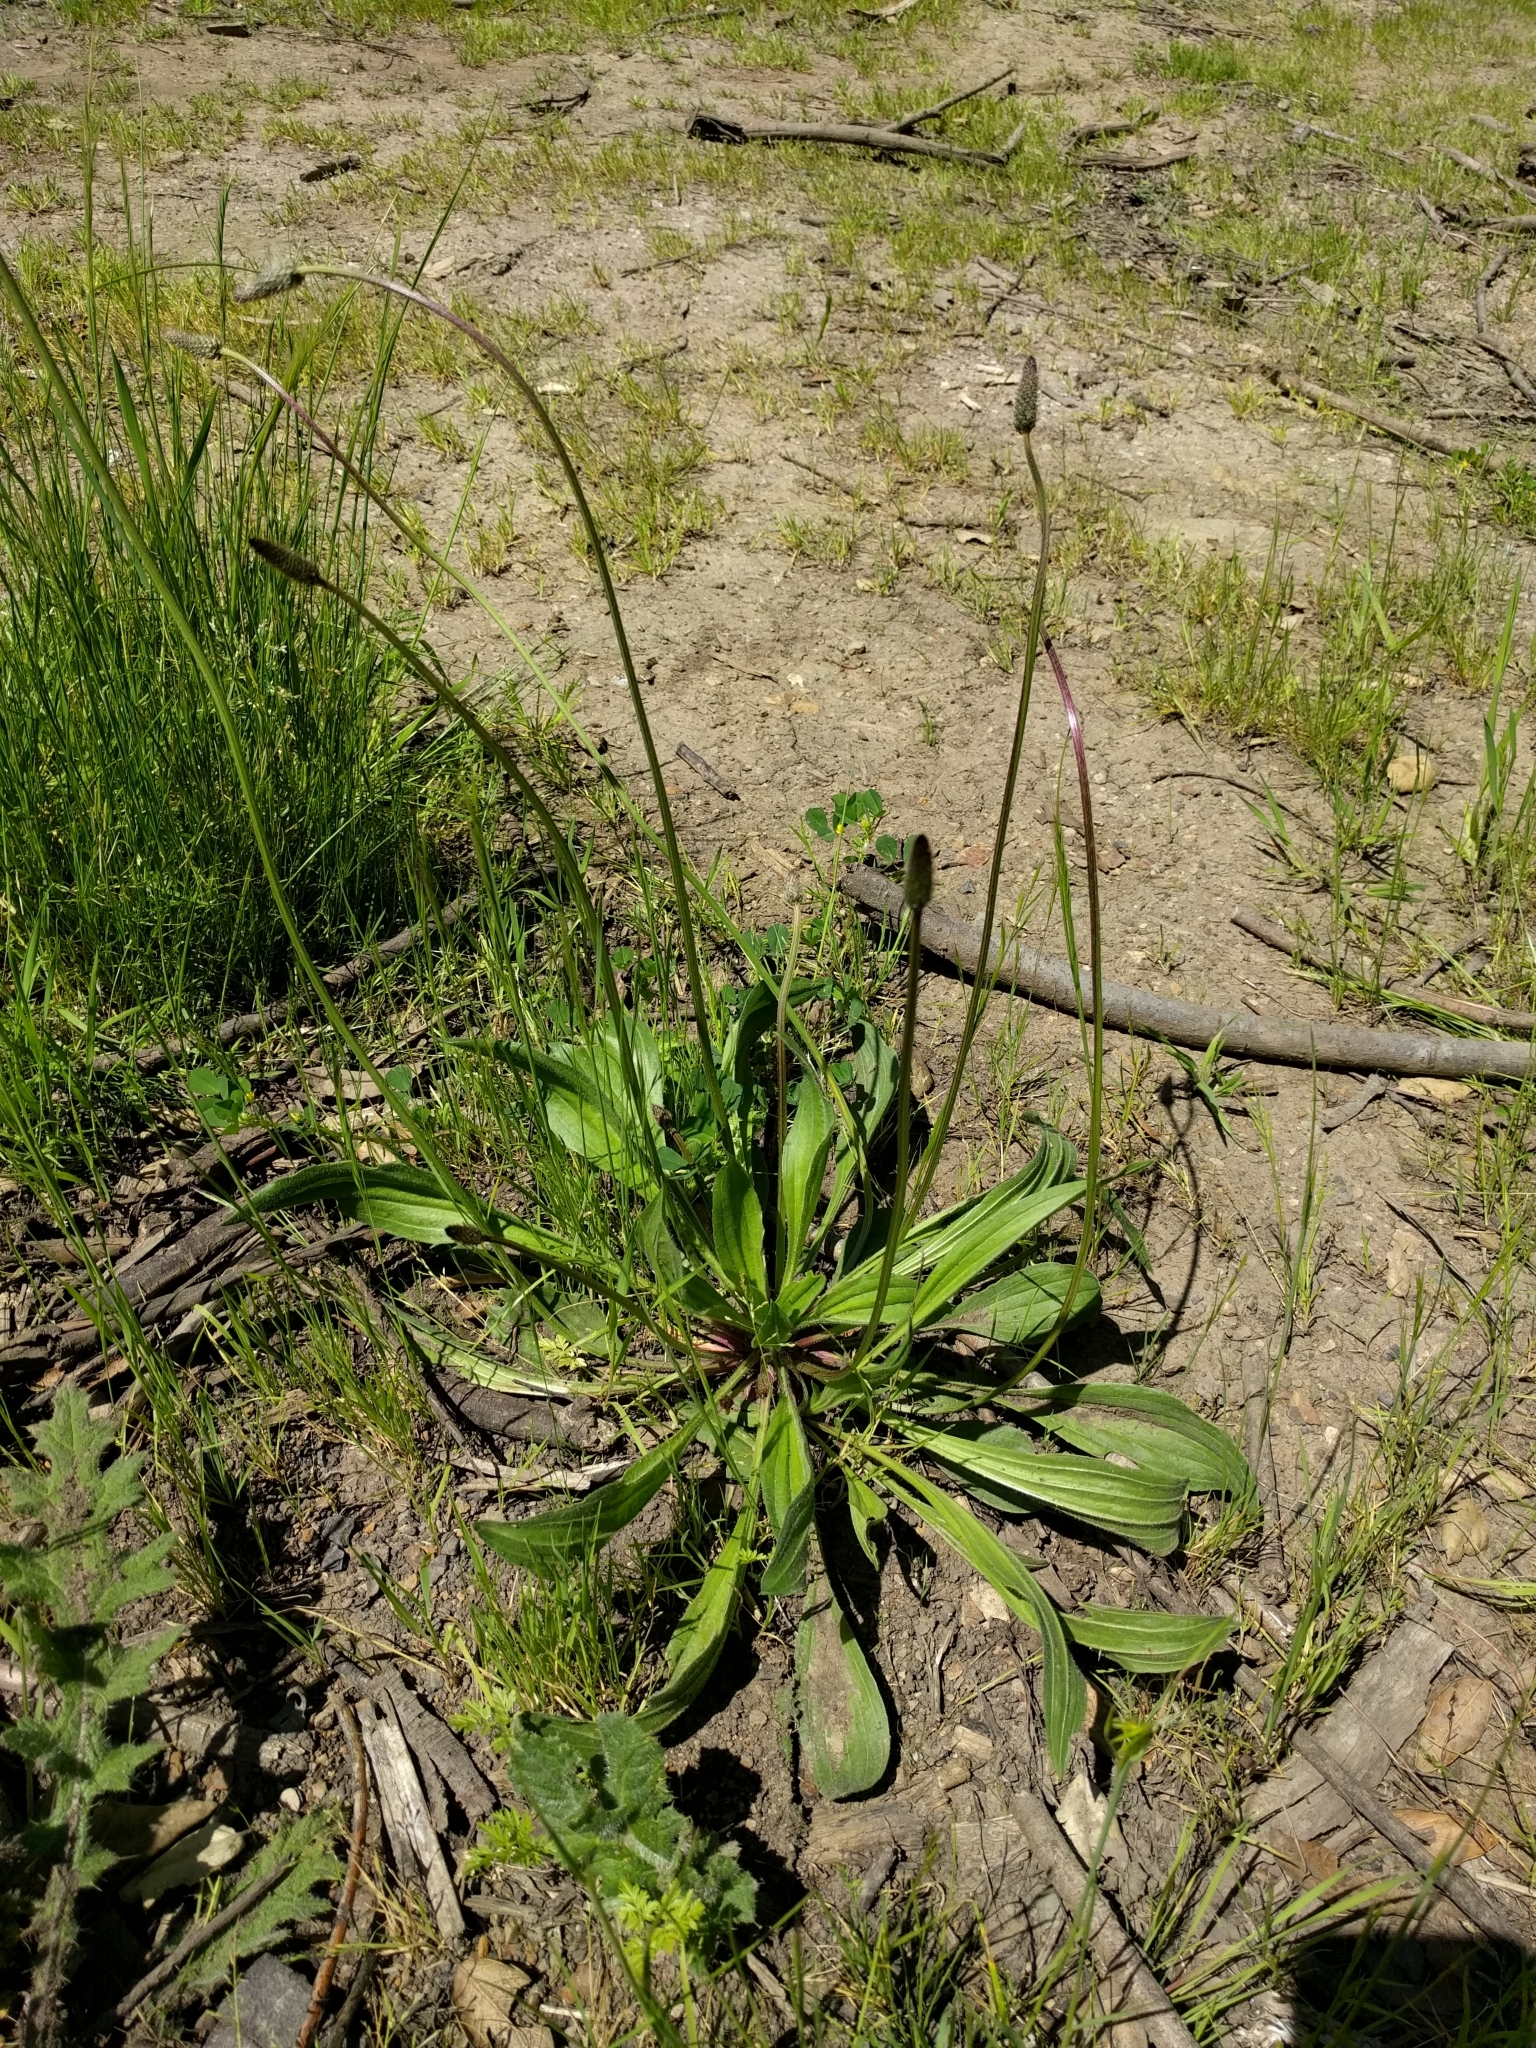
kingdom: Plantae
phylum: Tracheophyta
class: Magnoliopsida
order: Lamiales
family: Plantaginaceae
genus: Plantago
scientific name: Plantago lanceolata
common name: Ribwort plantain
